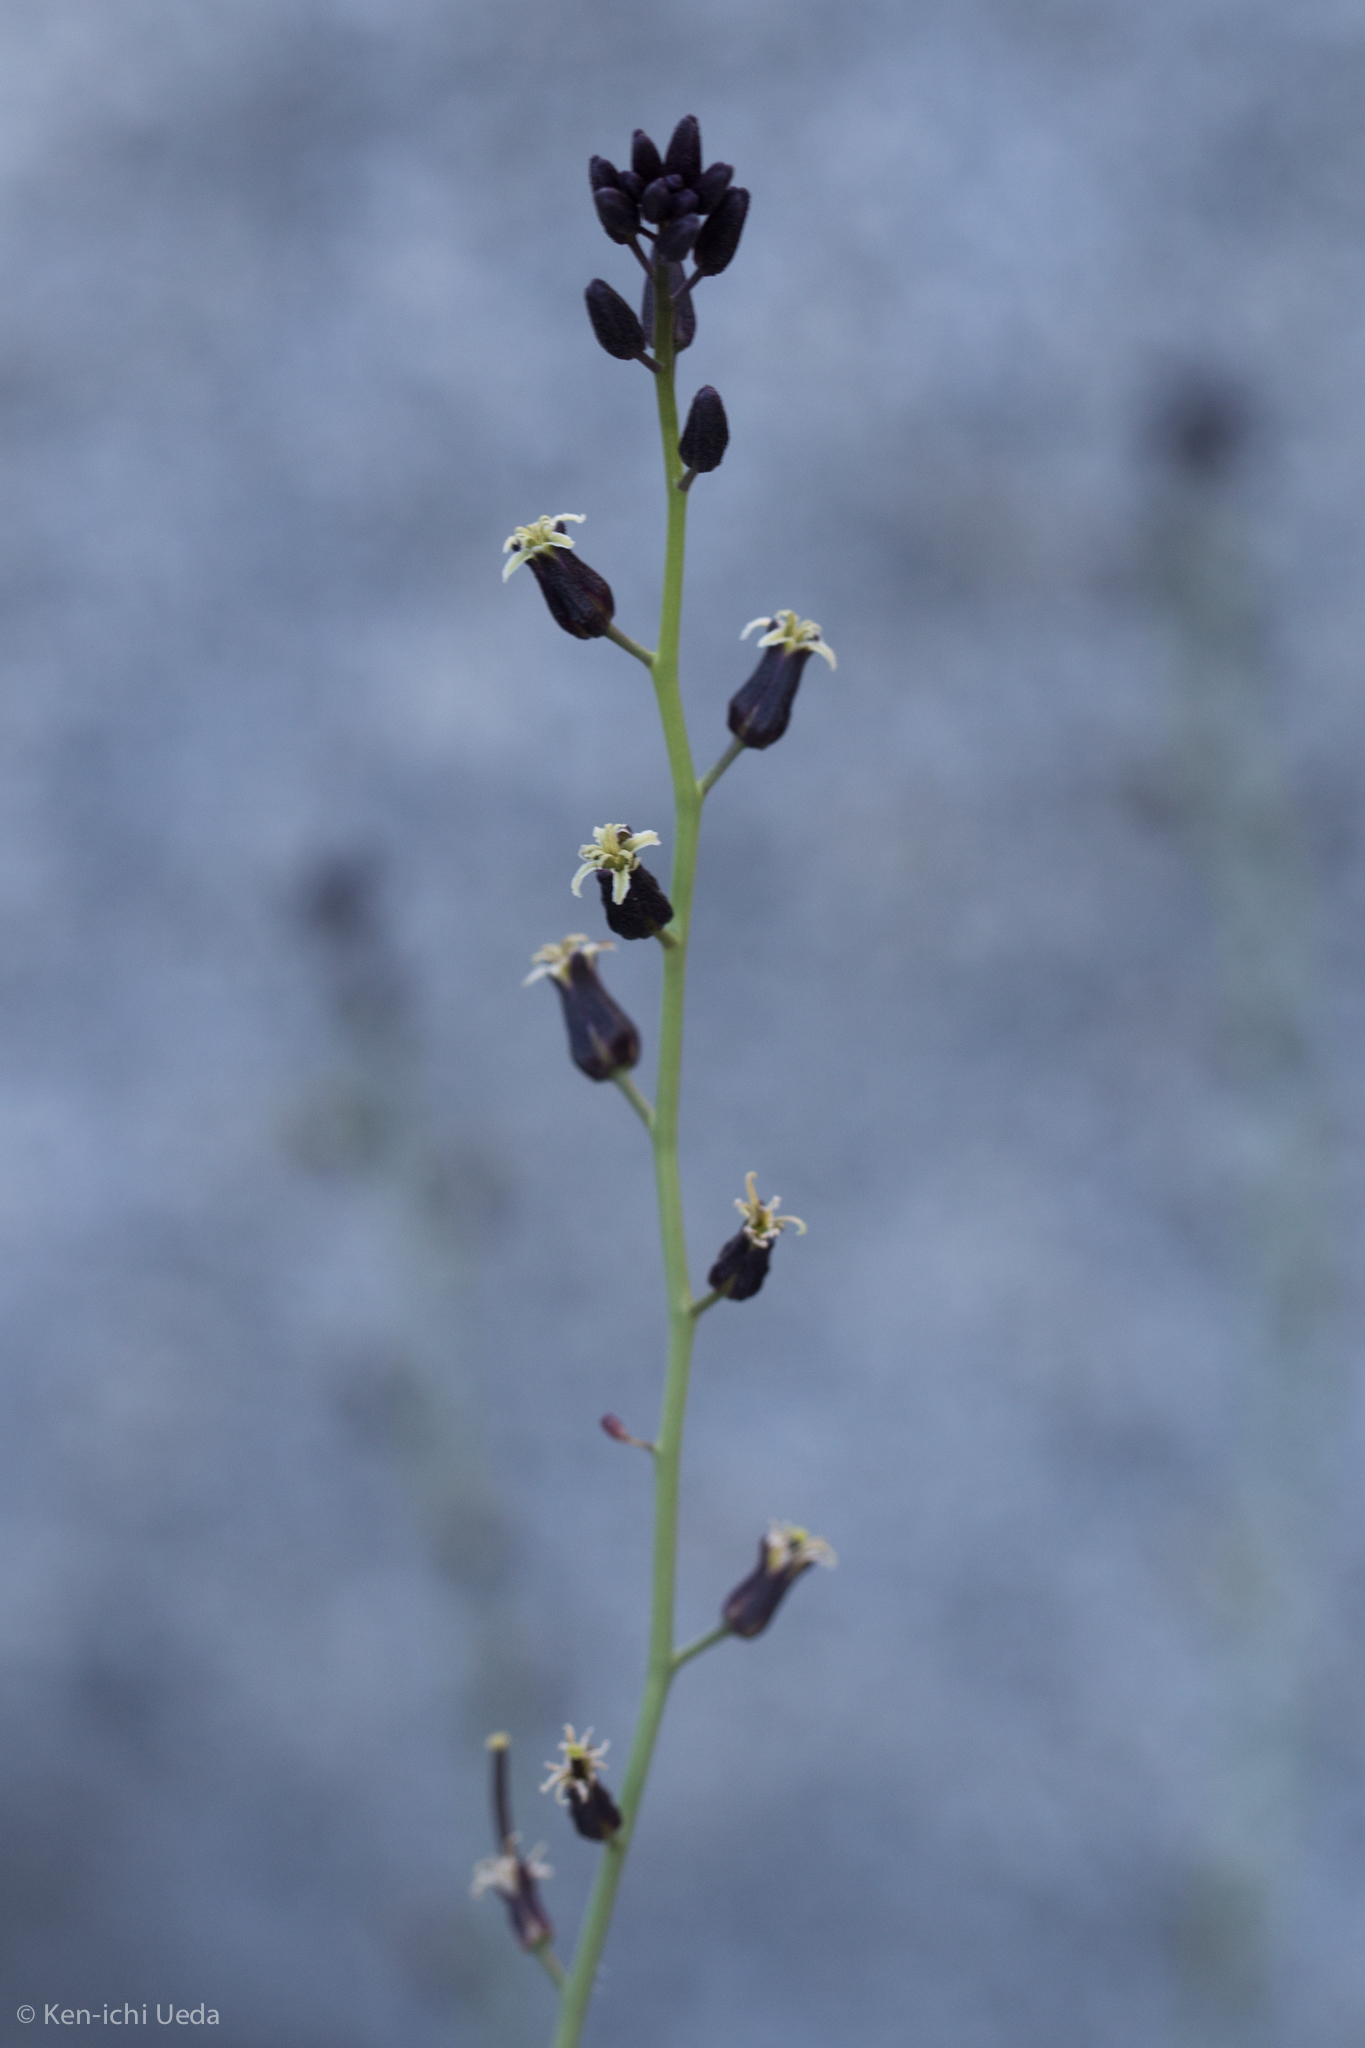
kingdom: Plantae
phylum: Tracheophyta
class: Magnoliopsida
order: Brassicales
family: Brassicaceae
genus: Streptanthus
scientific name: Streptanthus pilosus
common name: Chocolate drops
